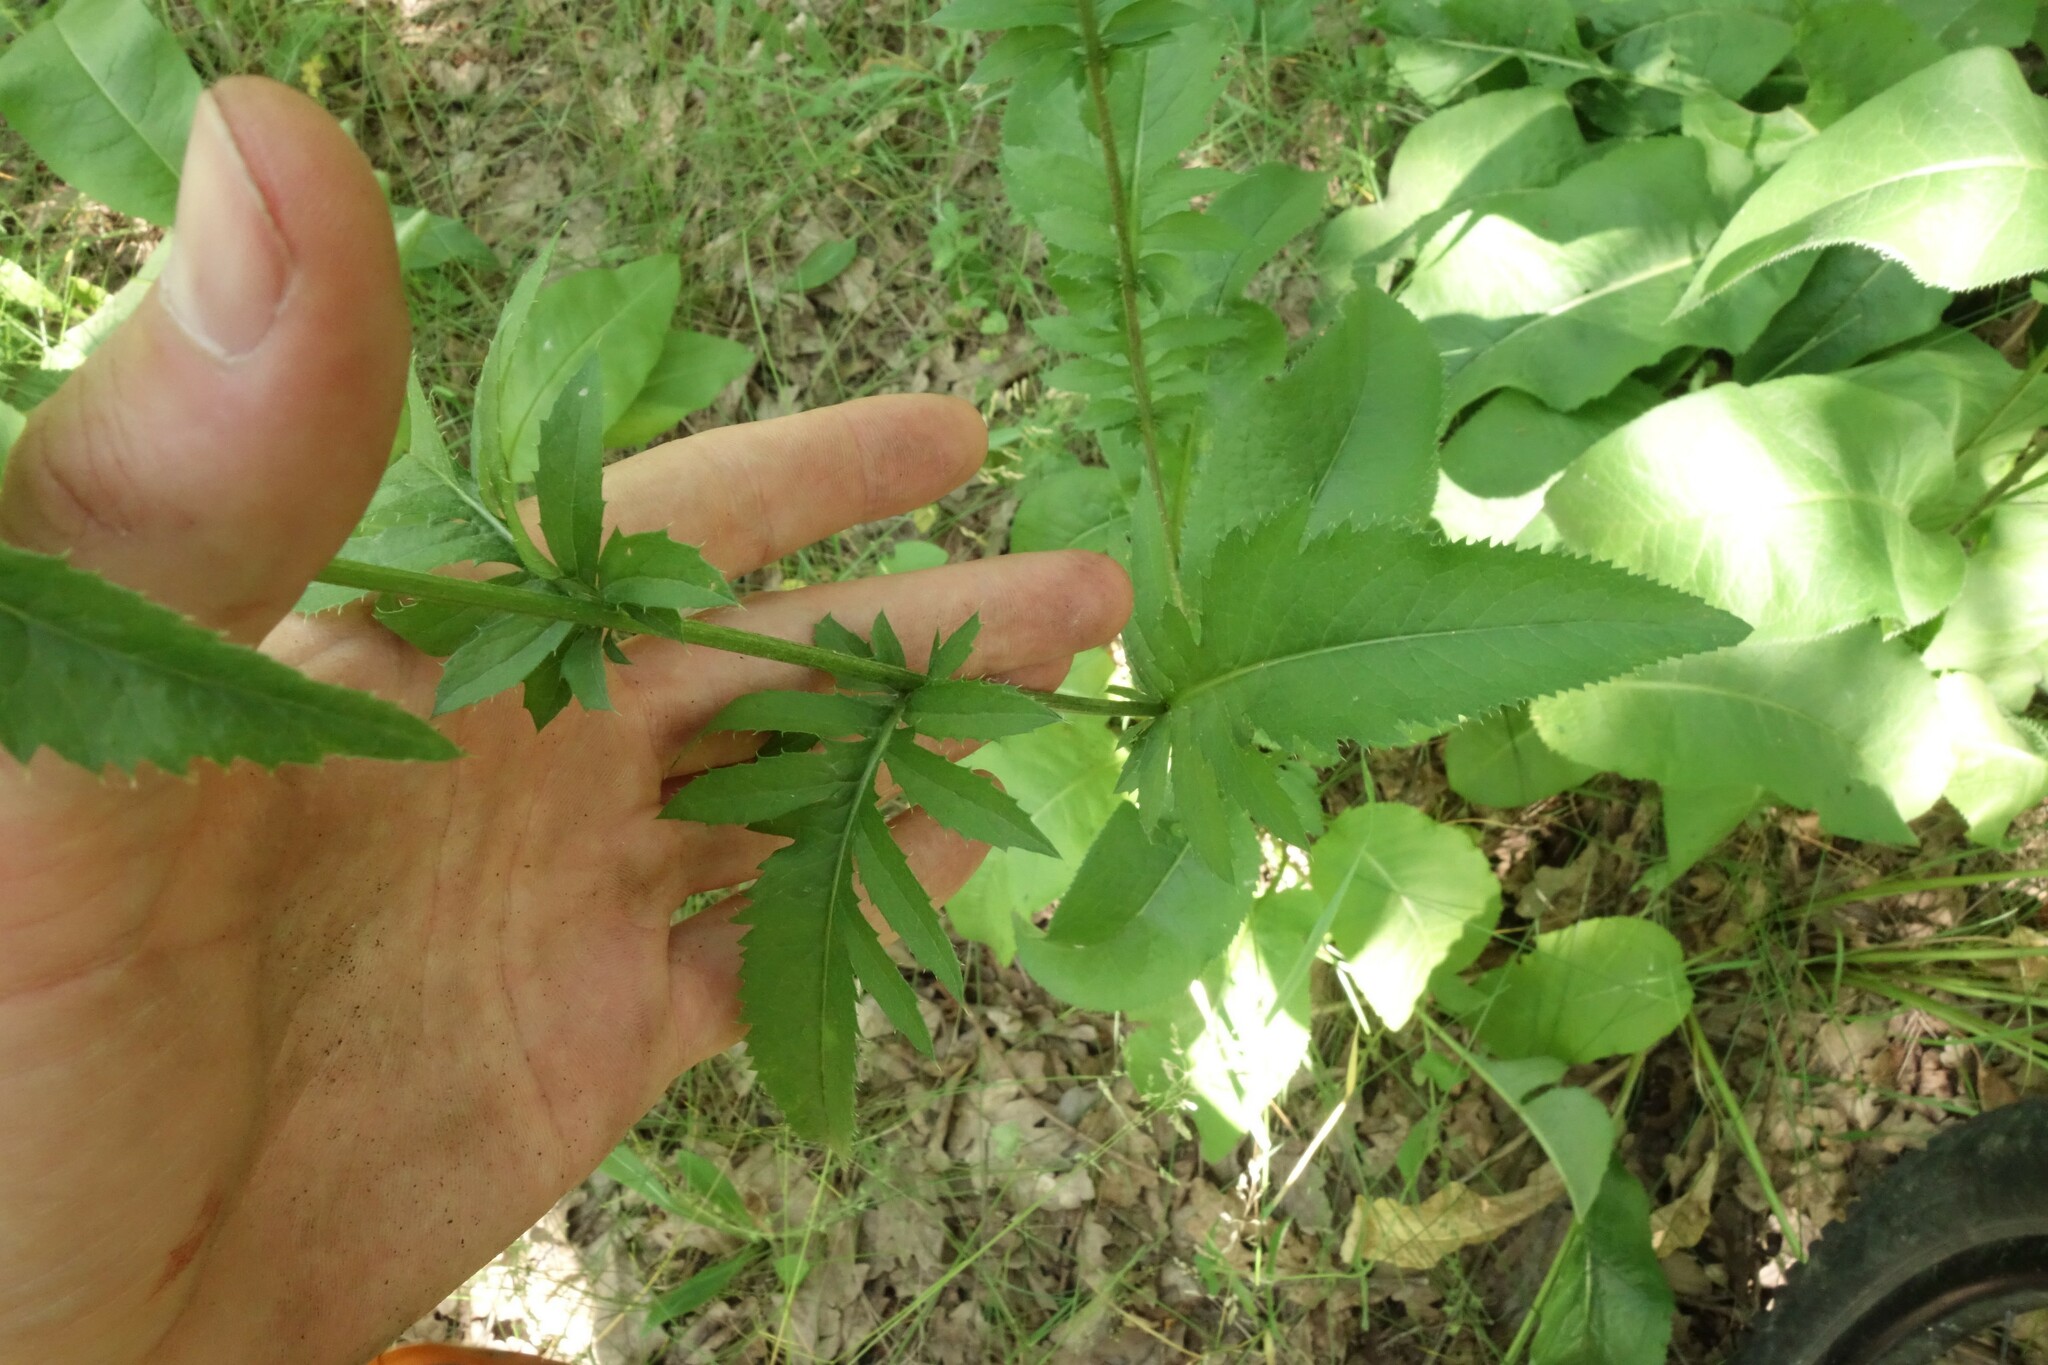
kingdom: Plantae
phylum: Tracheophyta
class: Magnoliopsida
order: Asterales
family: Asteraceae
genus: Serratula
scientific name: Serratula tinctoria
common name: Saw-wort
